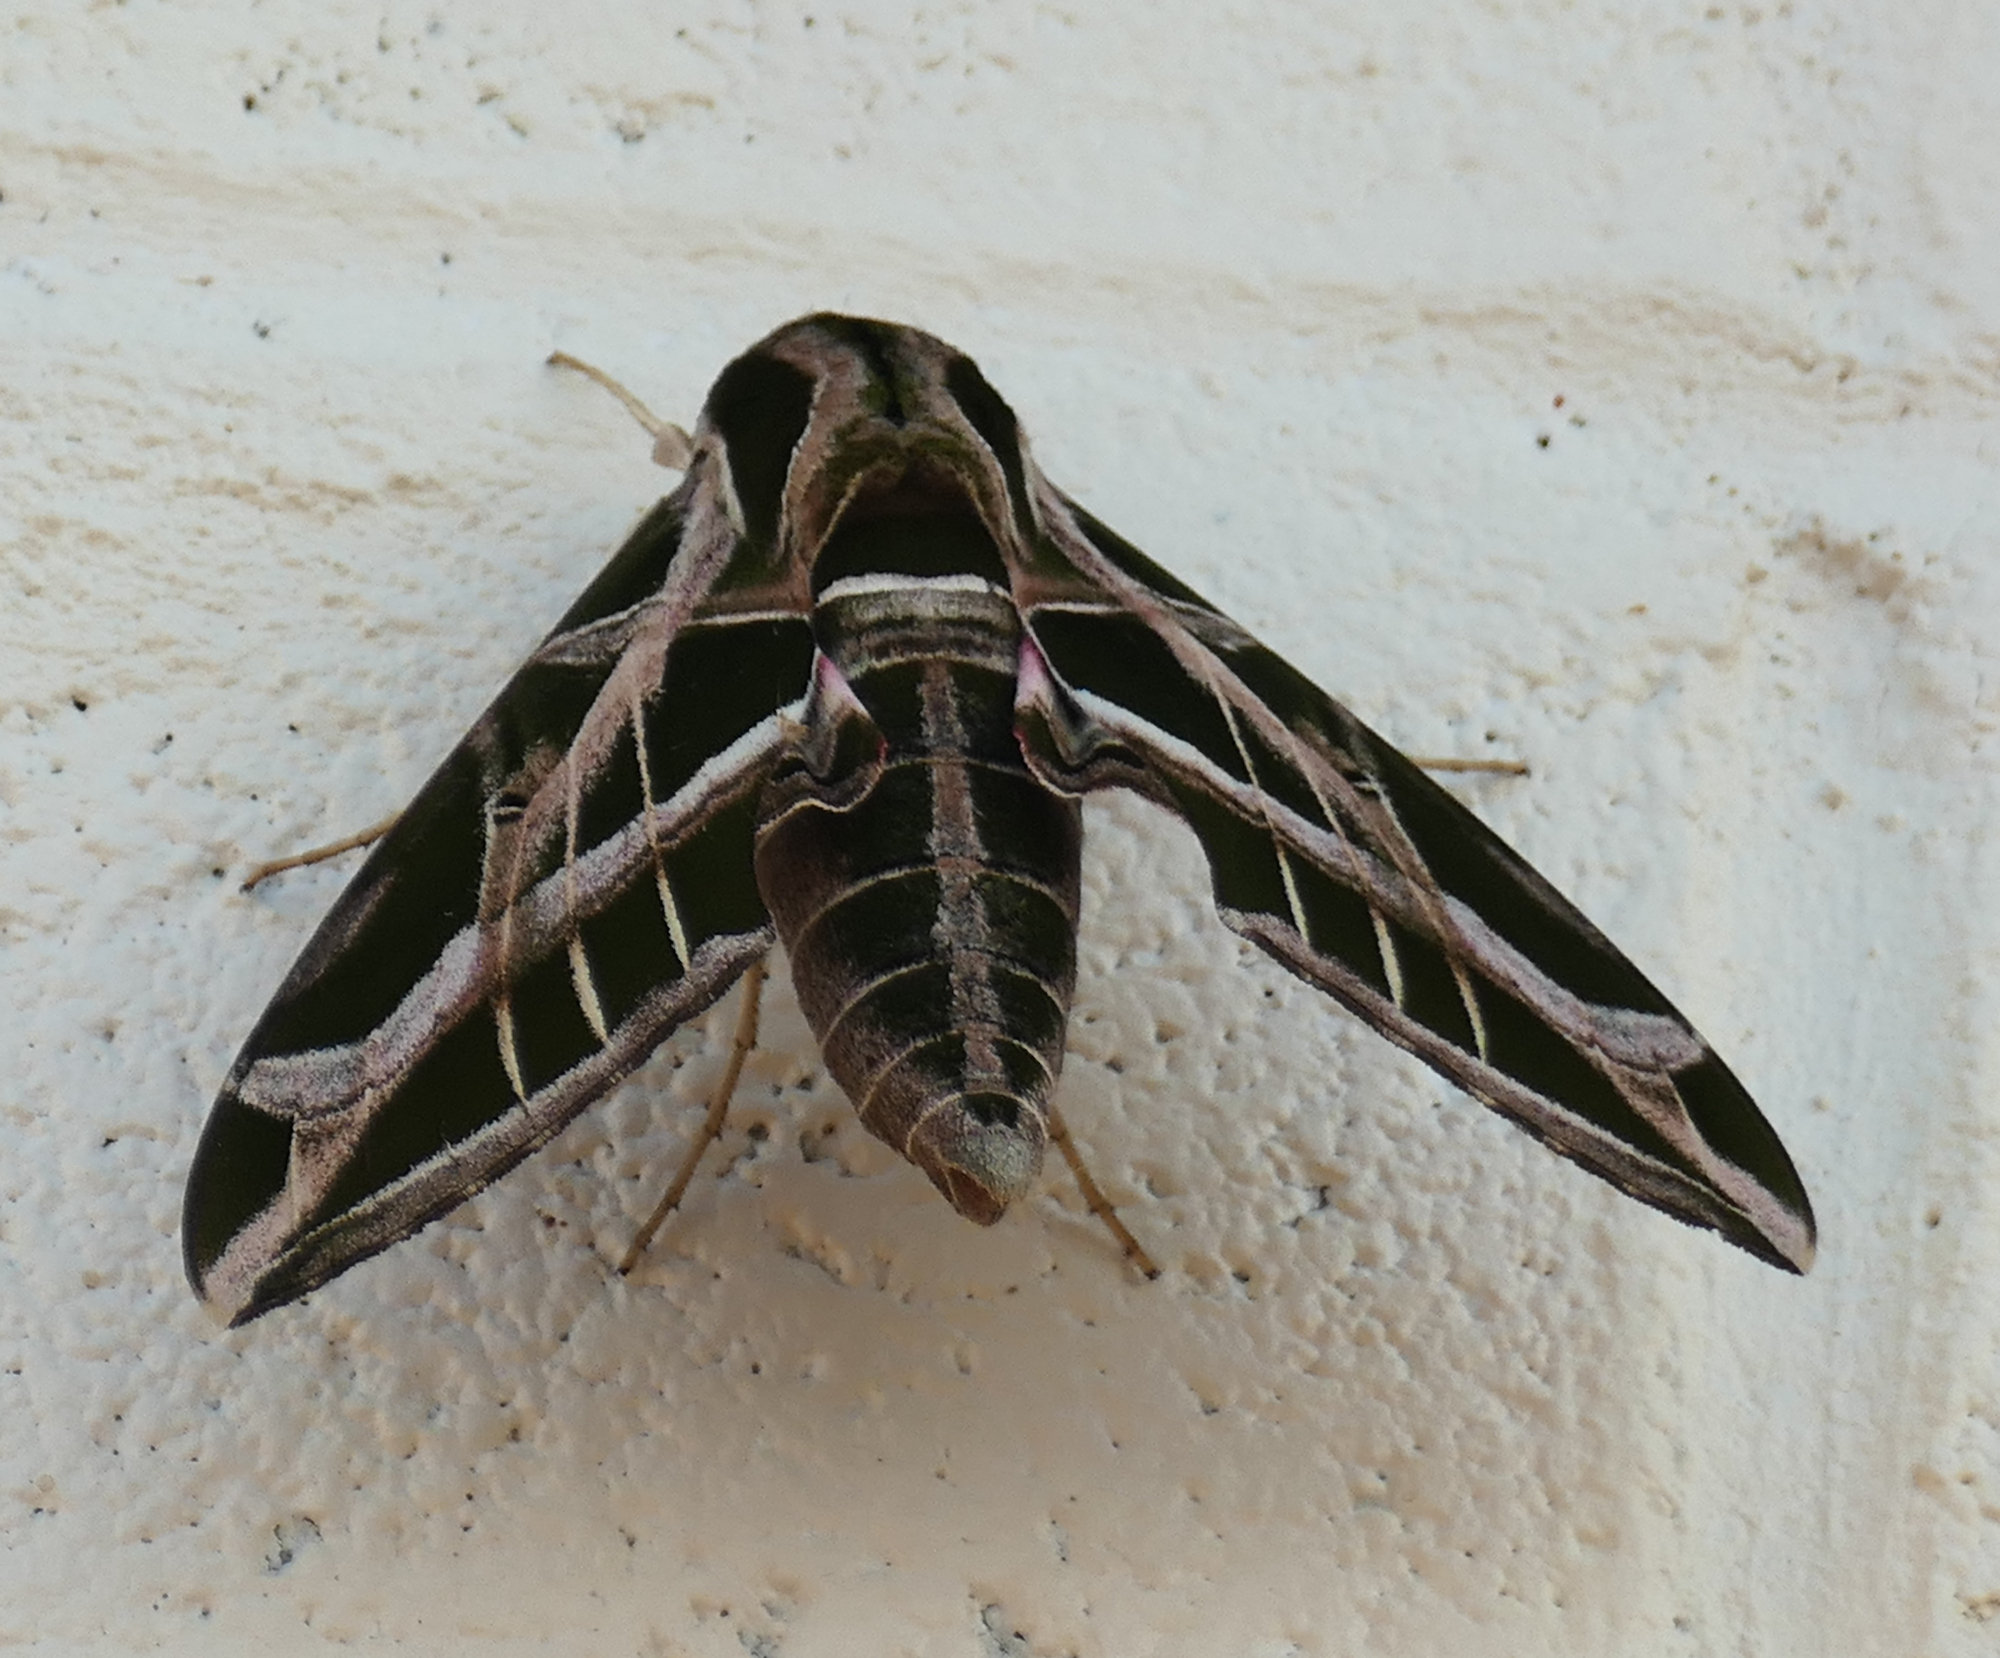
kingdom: Animalia
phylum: Arthropoda
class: Insecta
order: Lepidoptera
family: Sphingidae
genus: Eumorpha
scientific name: Eumorpha vitis
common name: Vine sphinx
